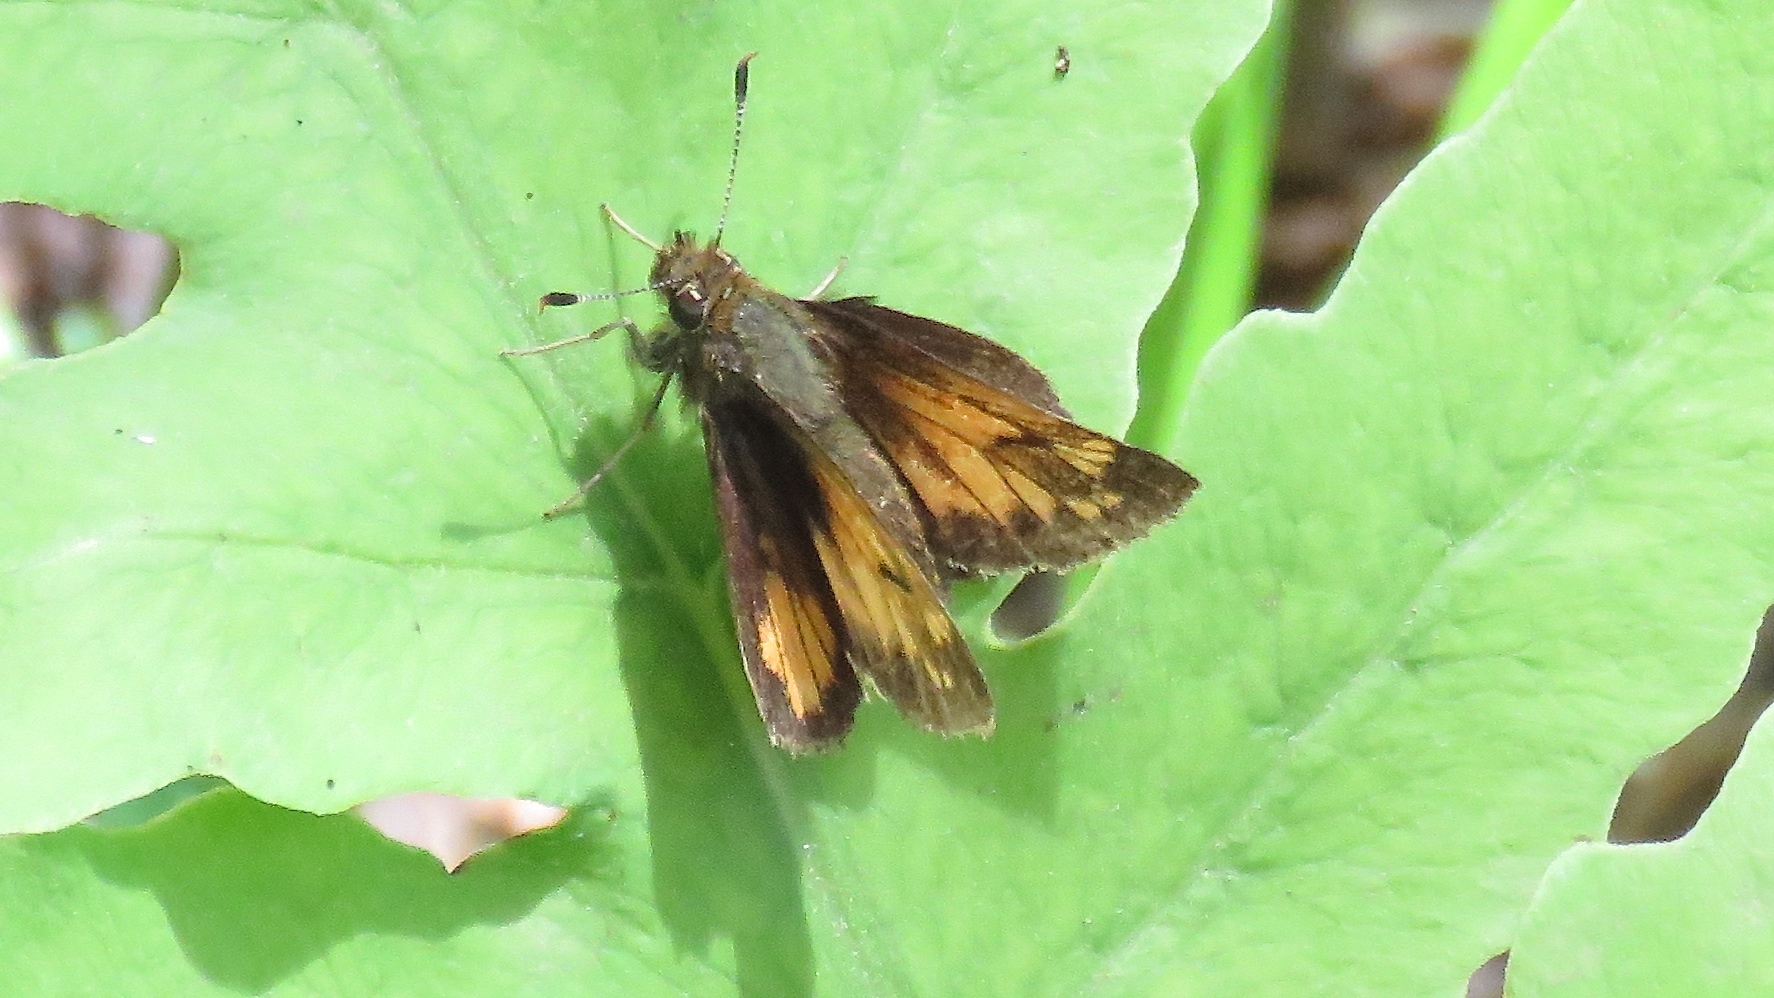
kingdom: Animalia
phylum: Arthropoda
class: Insecta
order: Lepidoptera
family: Hesperiidae
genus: Lon
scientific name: Lon hobomok
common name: Hobomok skipper
